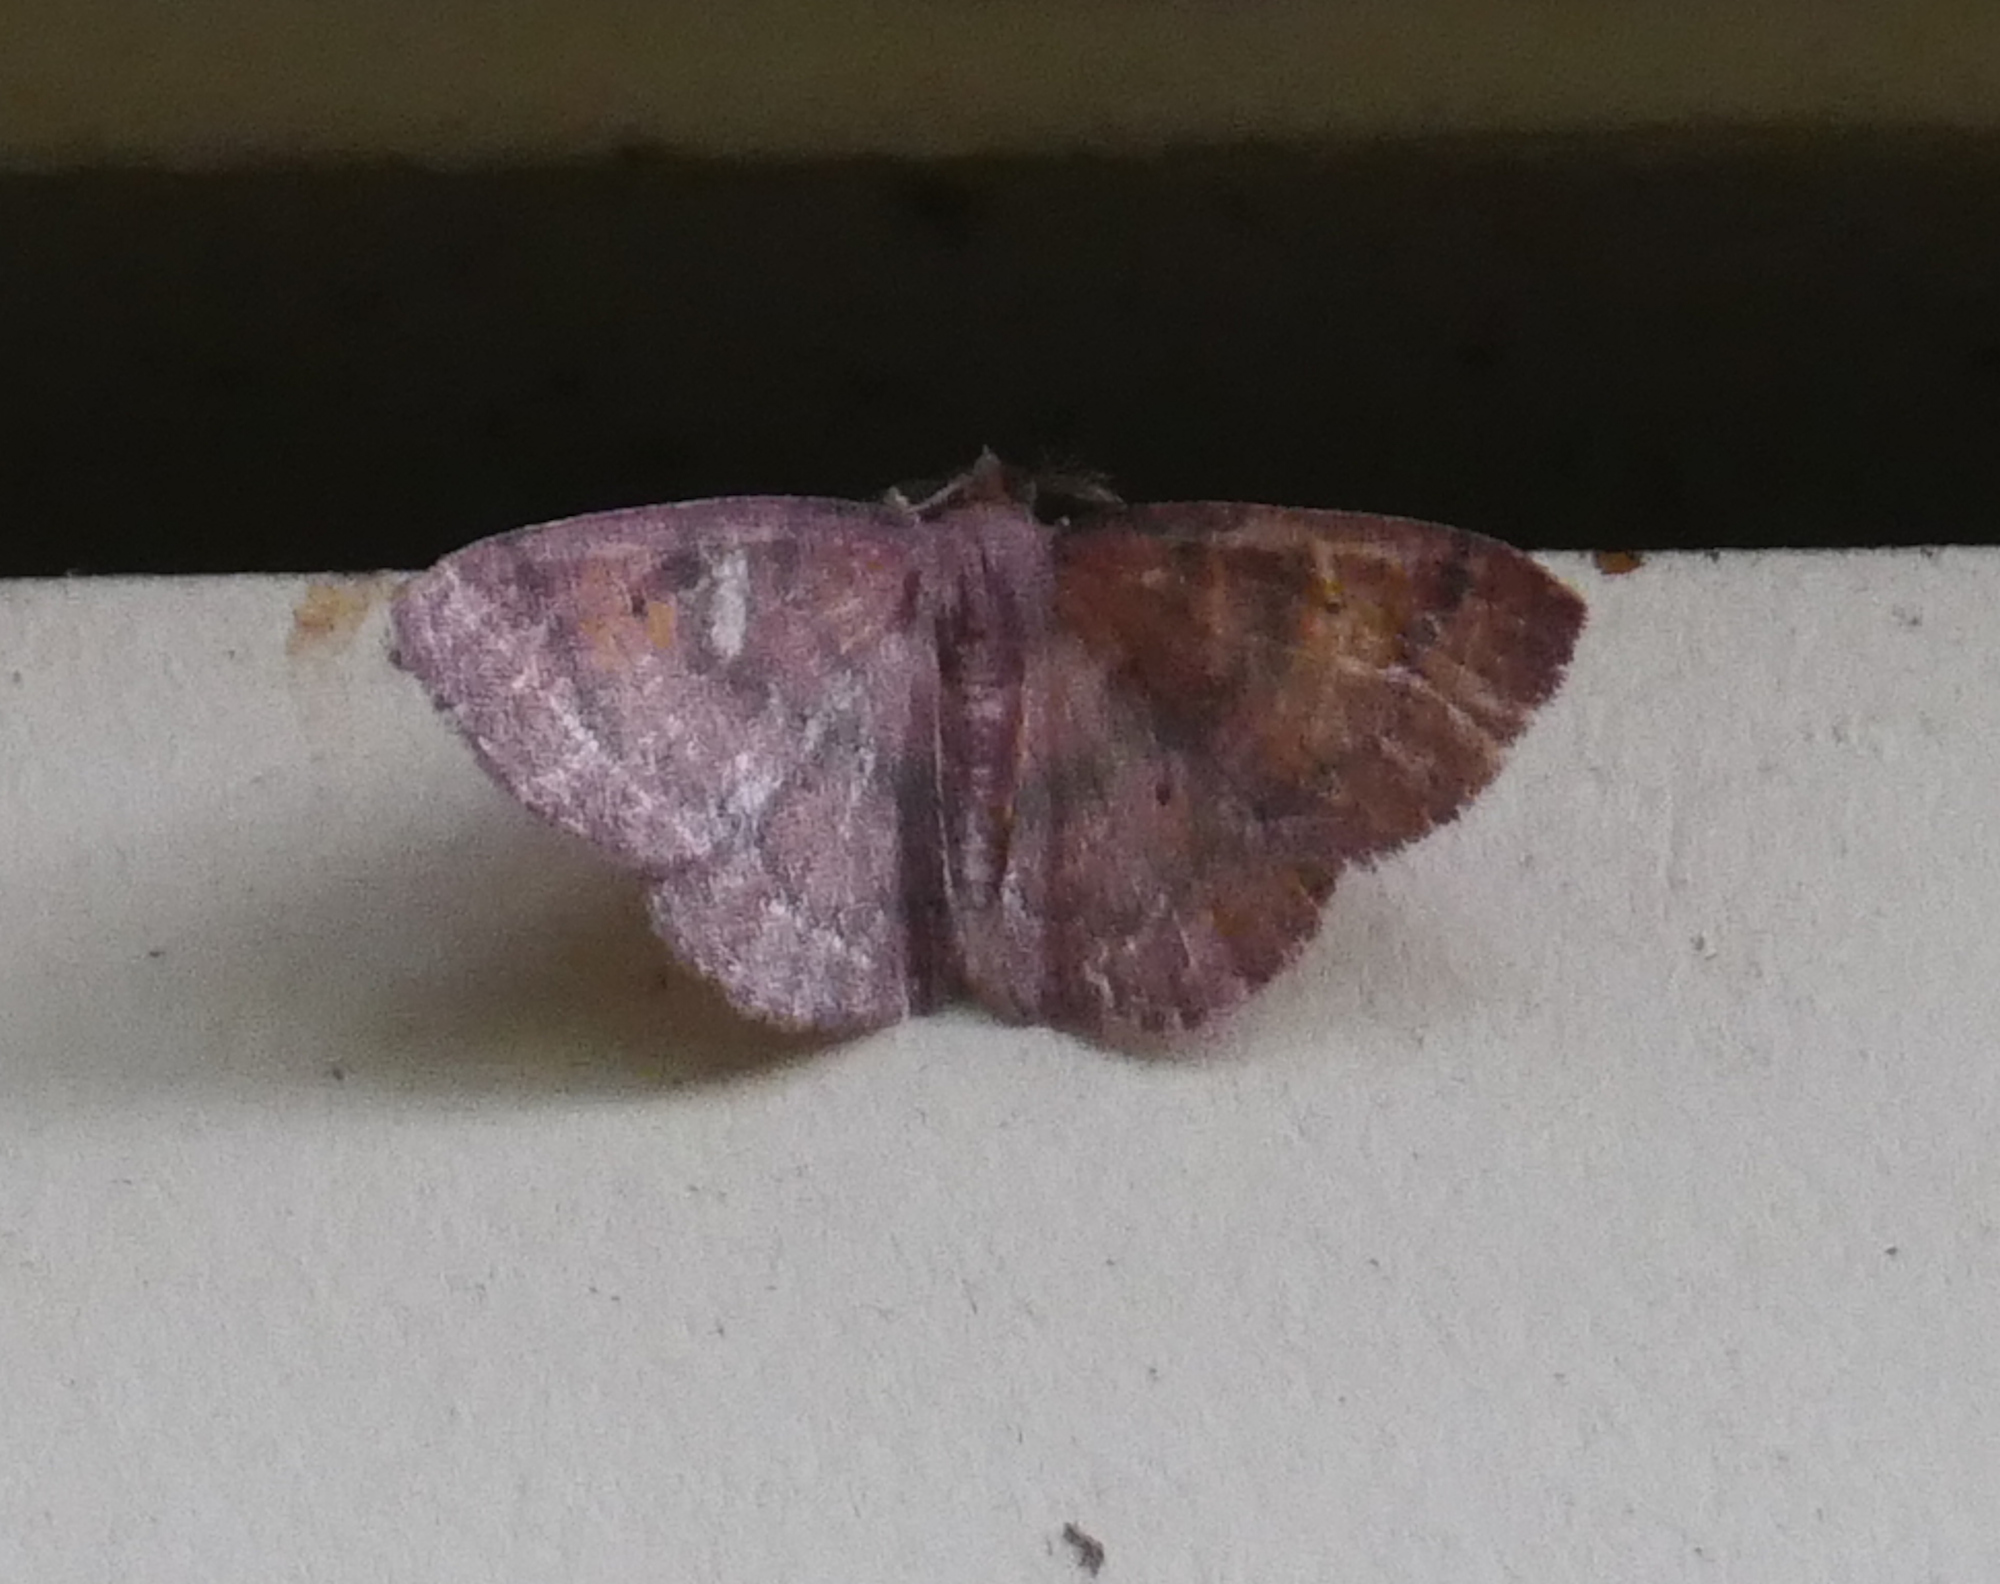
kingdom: Animalia
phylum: Arthropoda
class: Insecta
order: Lepidoptera
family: Geometridae
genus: Ilexia
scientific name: Ilexia intractata
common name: Black-dotted ruddy moth
